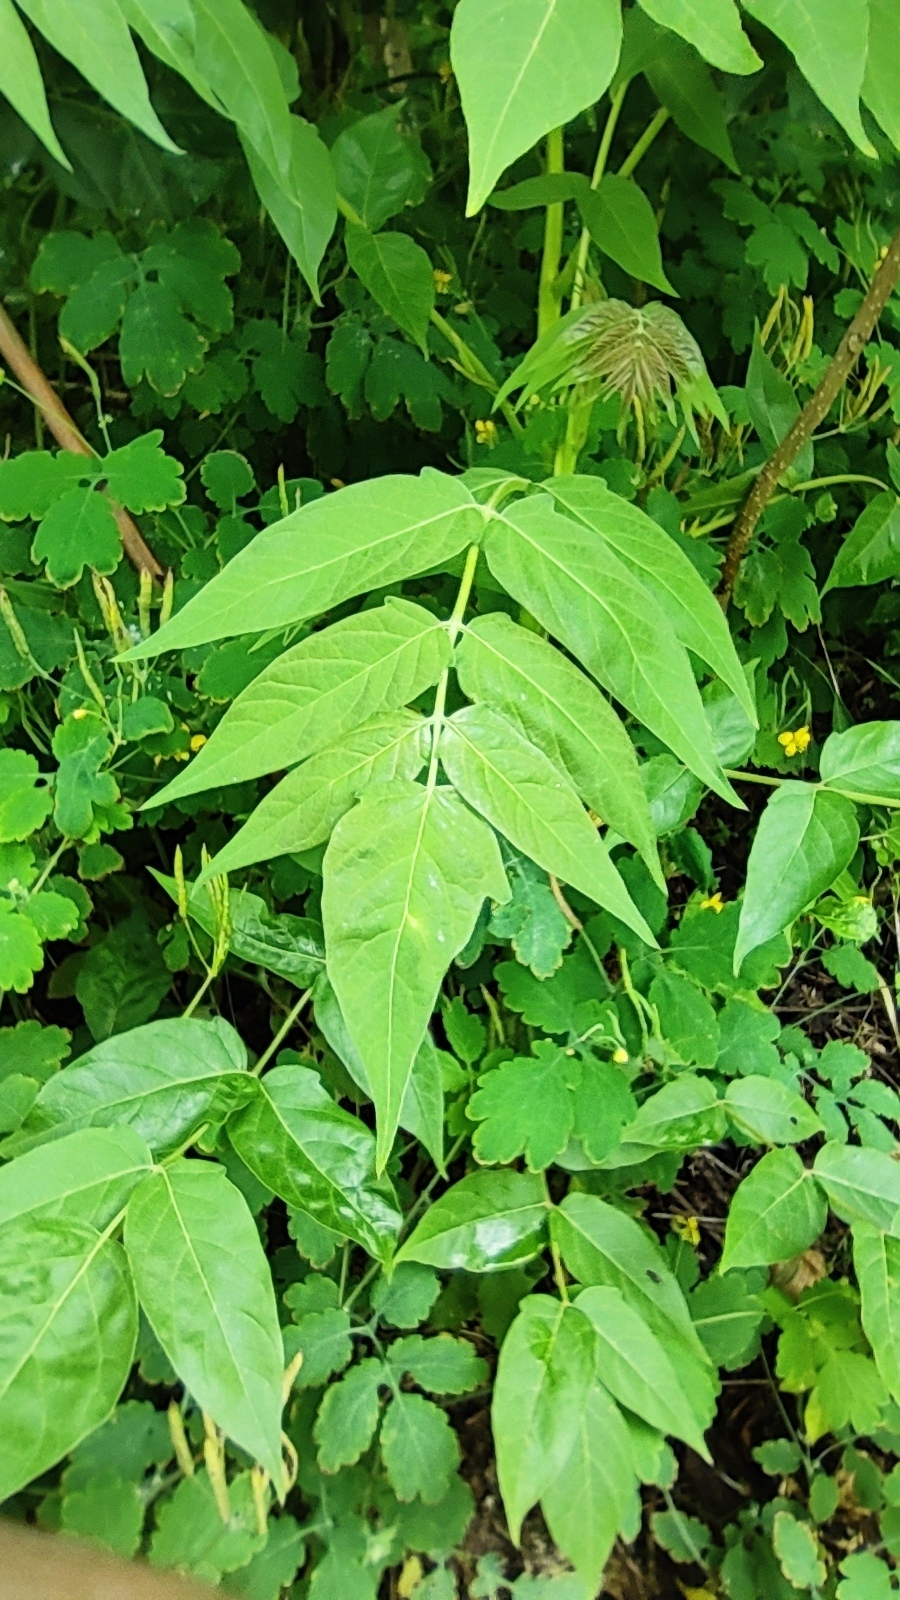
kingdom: Plantae
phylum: Tracheophyta
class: Magnoliopsida
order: Sapindales
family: Simaroubaceae
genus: Ailanthus
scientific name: Ailanthus altissima
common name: Tree-of-heaven
